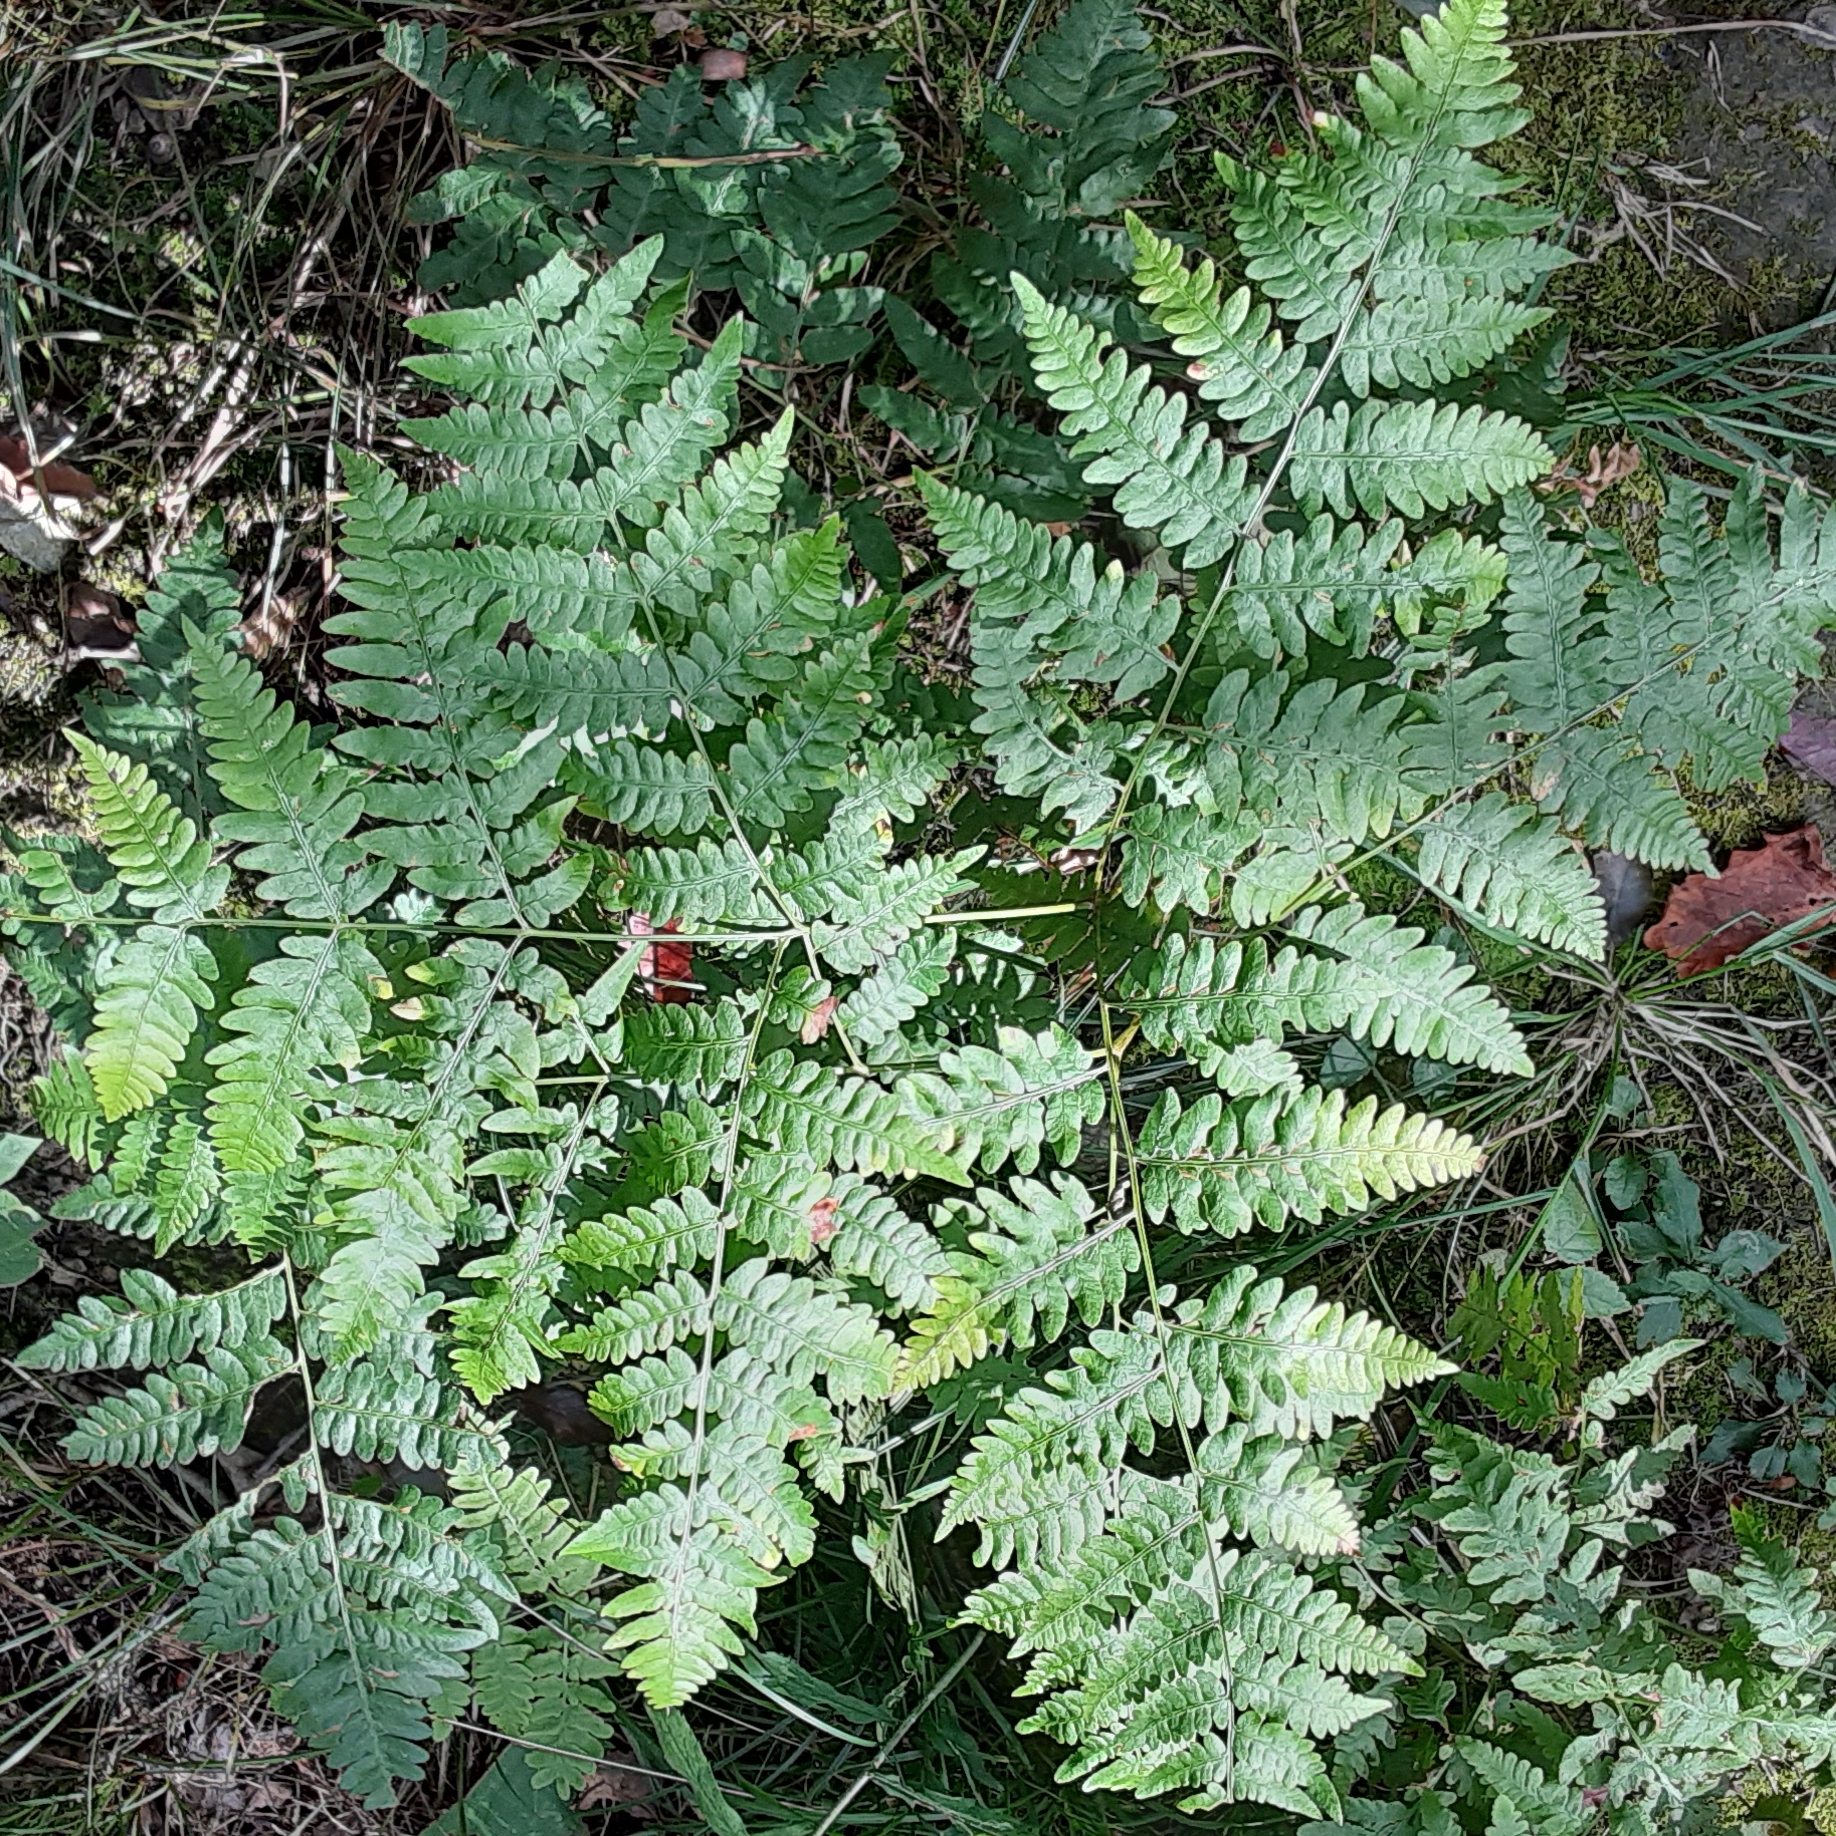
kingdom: Plantae
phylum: Tracheophyta
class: Polypodiopsida
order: Polypodiales
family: Dennstaedtiaceae
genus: Pteridium
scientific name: Pteridium aquilinum
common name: Bracken
